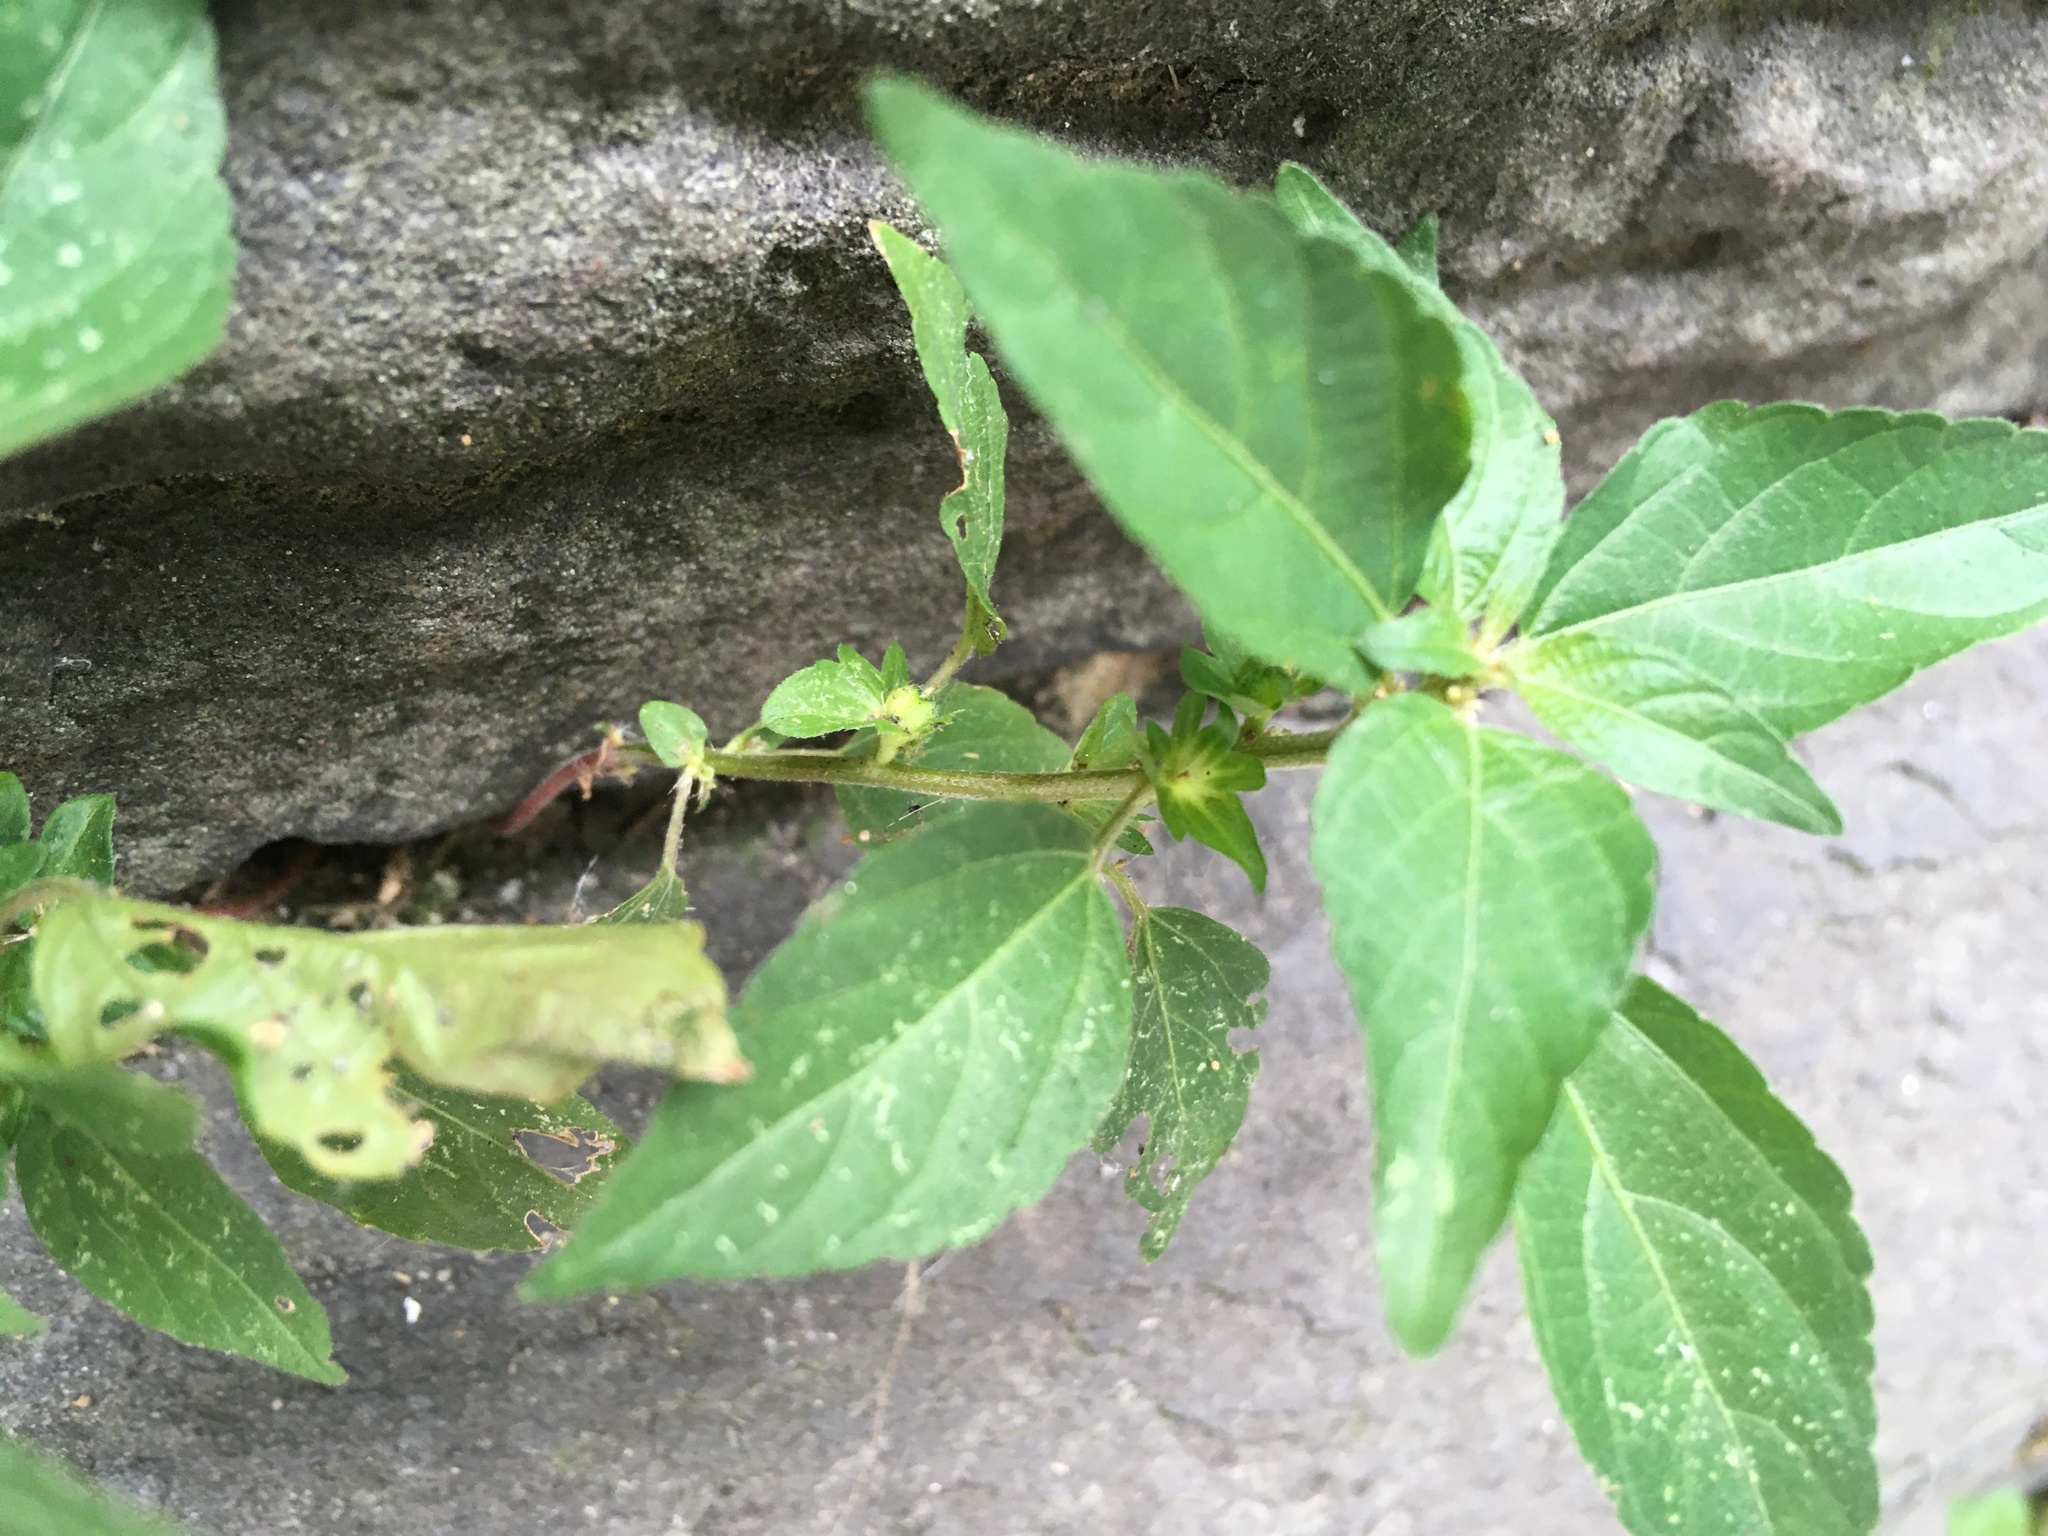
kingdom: Plantae
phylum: Tracheophyta
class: Magnoliopsida
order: Malpighiales
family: Euphorbiaceae
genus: Acalypha
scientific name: Acalypha rhomboidea
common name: Rhombic copperleaf
